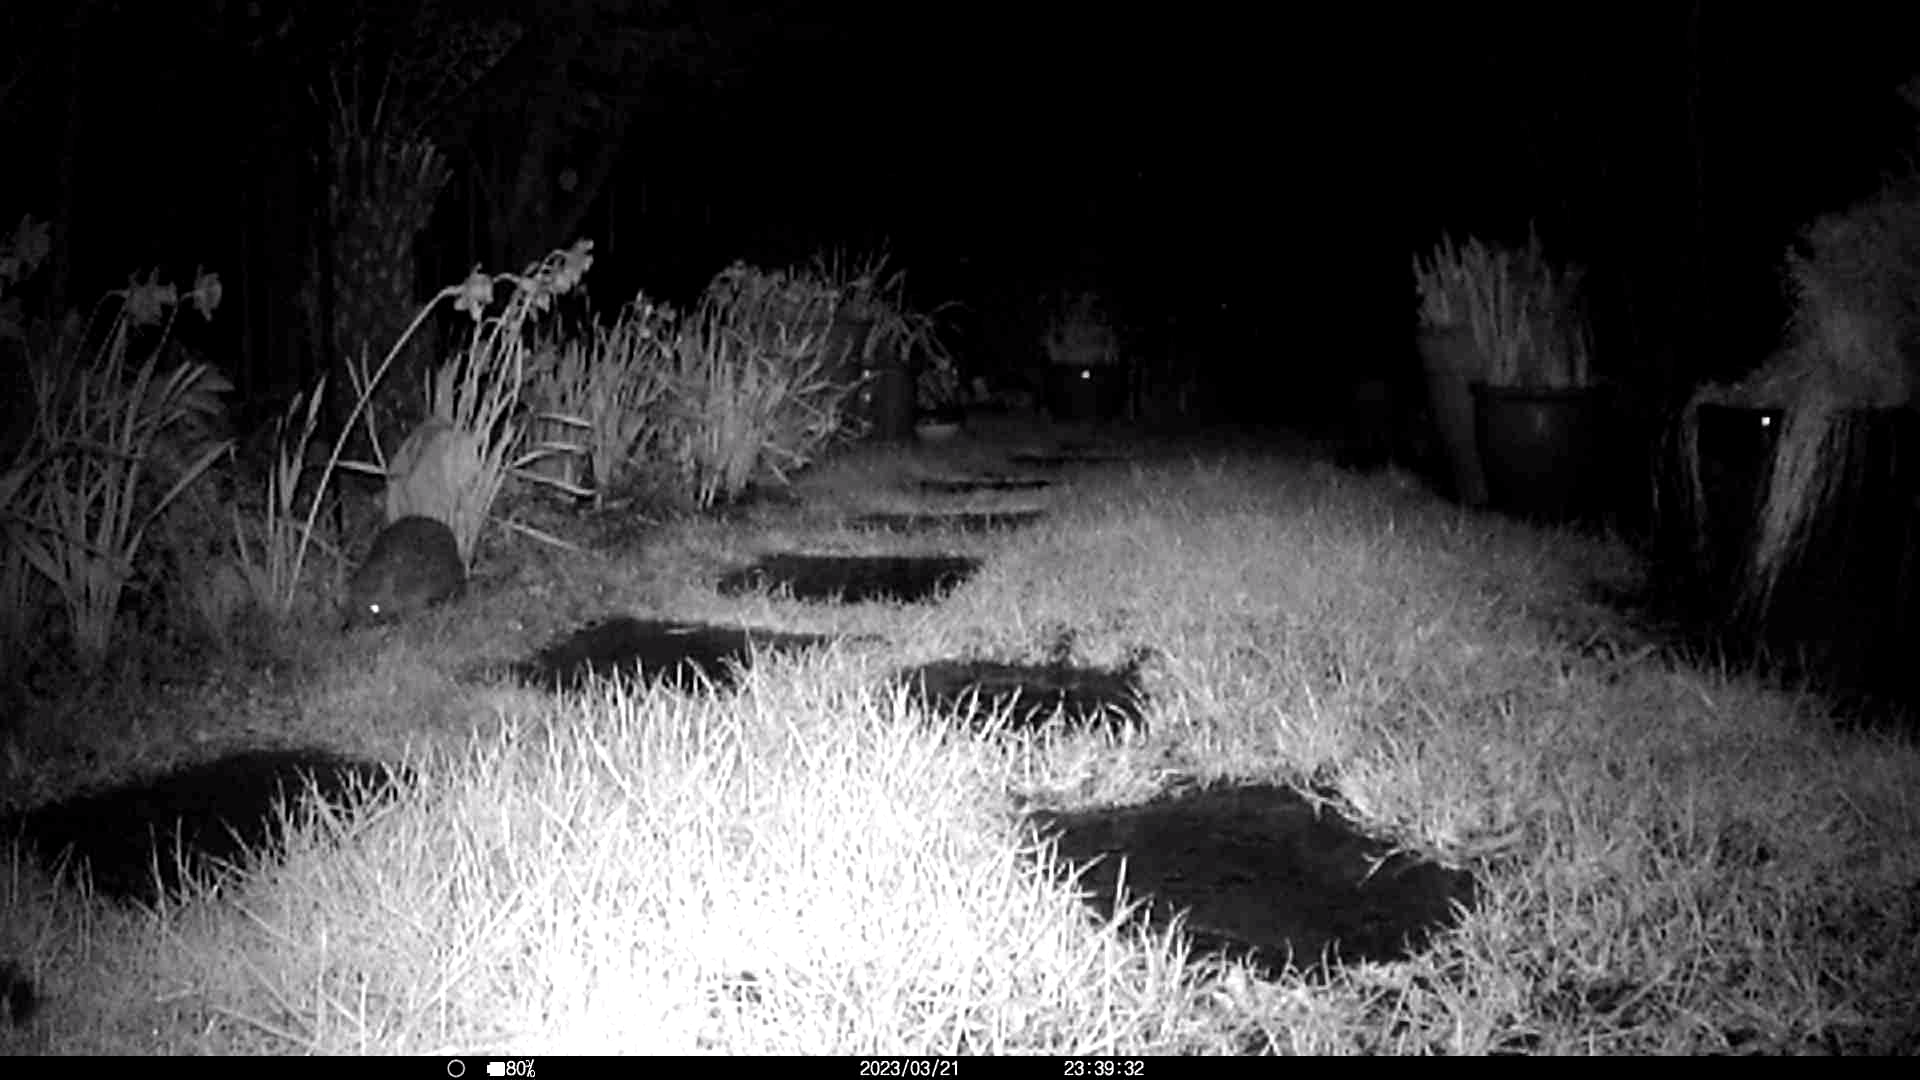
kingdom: Animalia
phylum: Chordata
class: Mammalia
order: Erinaceomorpha
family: Erinaceidae
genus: Erinaceus
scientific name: Erinaceus europaeus
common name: West european hedgehog
